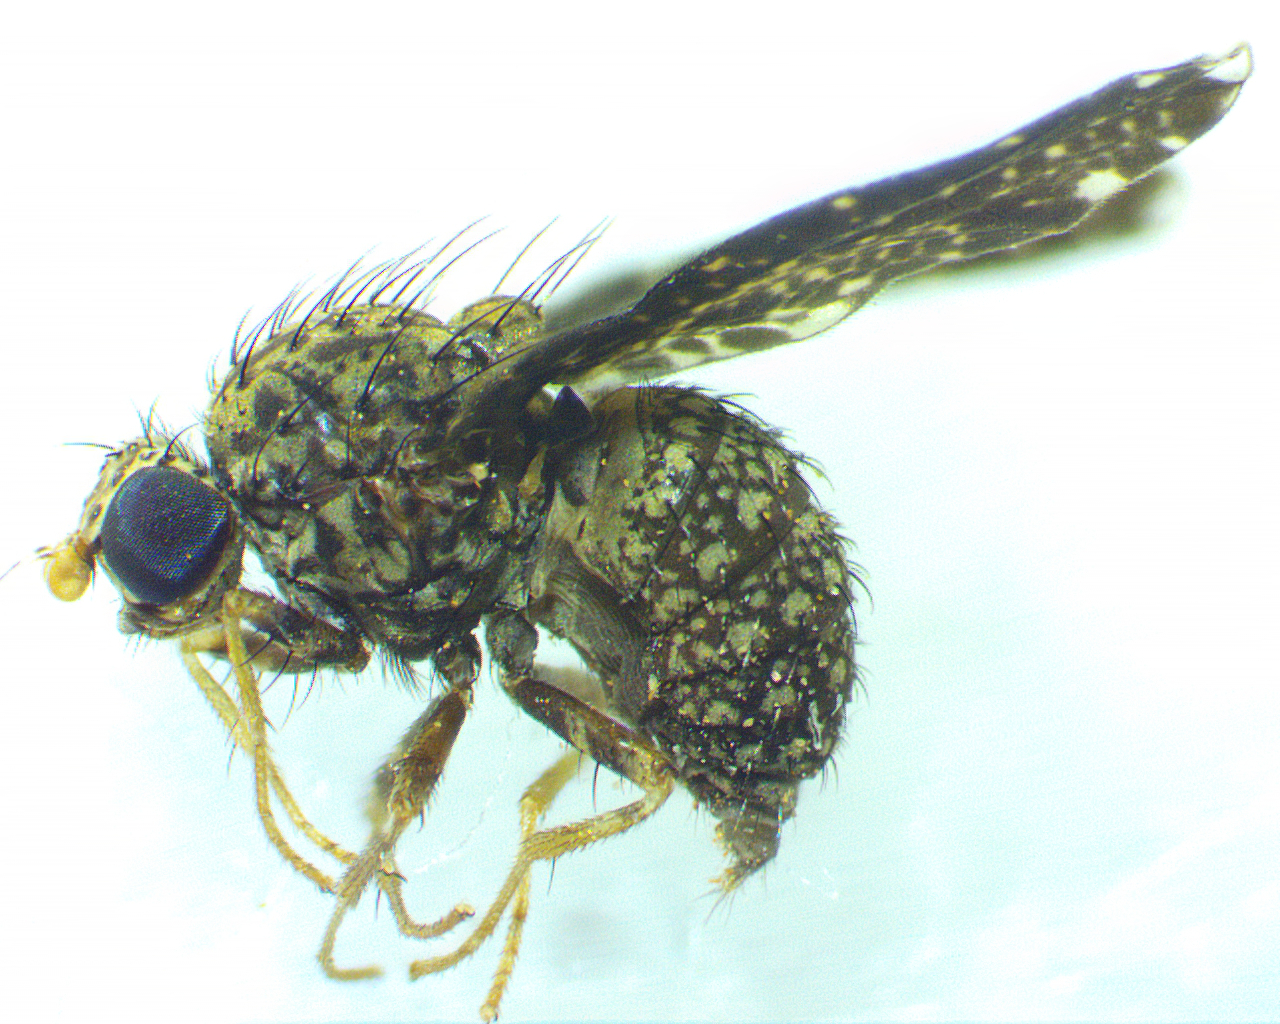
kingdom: Animalia
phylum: Arthropoda
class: Insecta
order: Diptera
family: Lauxaniidae
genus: Trypetisoma
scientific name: Trypetisoma sticticum
